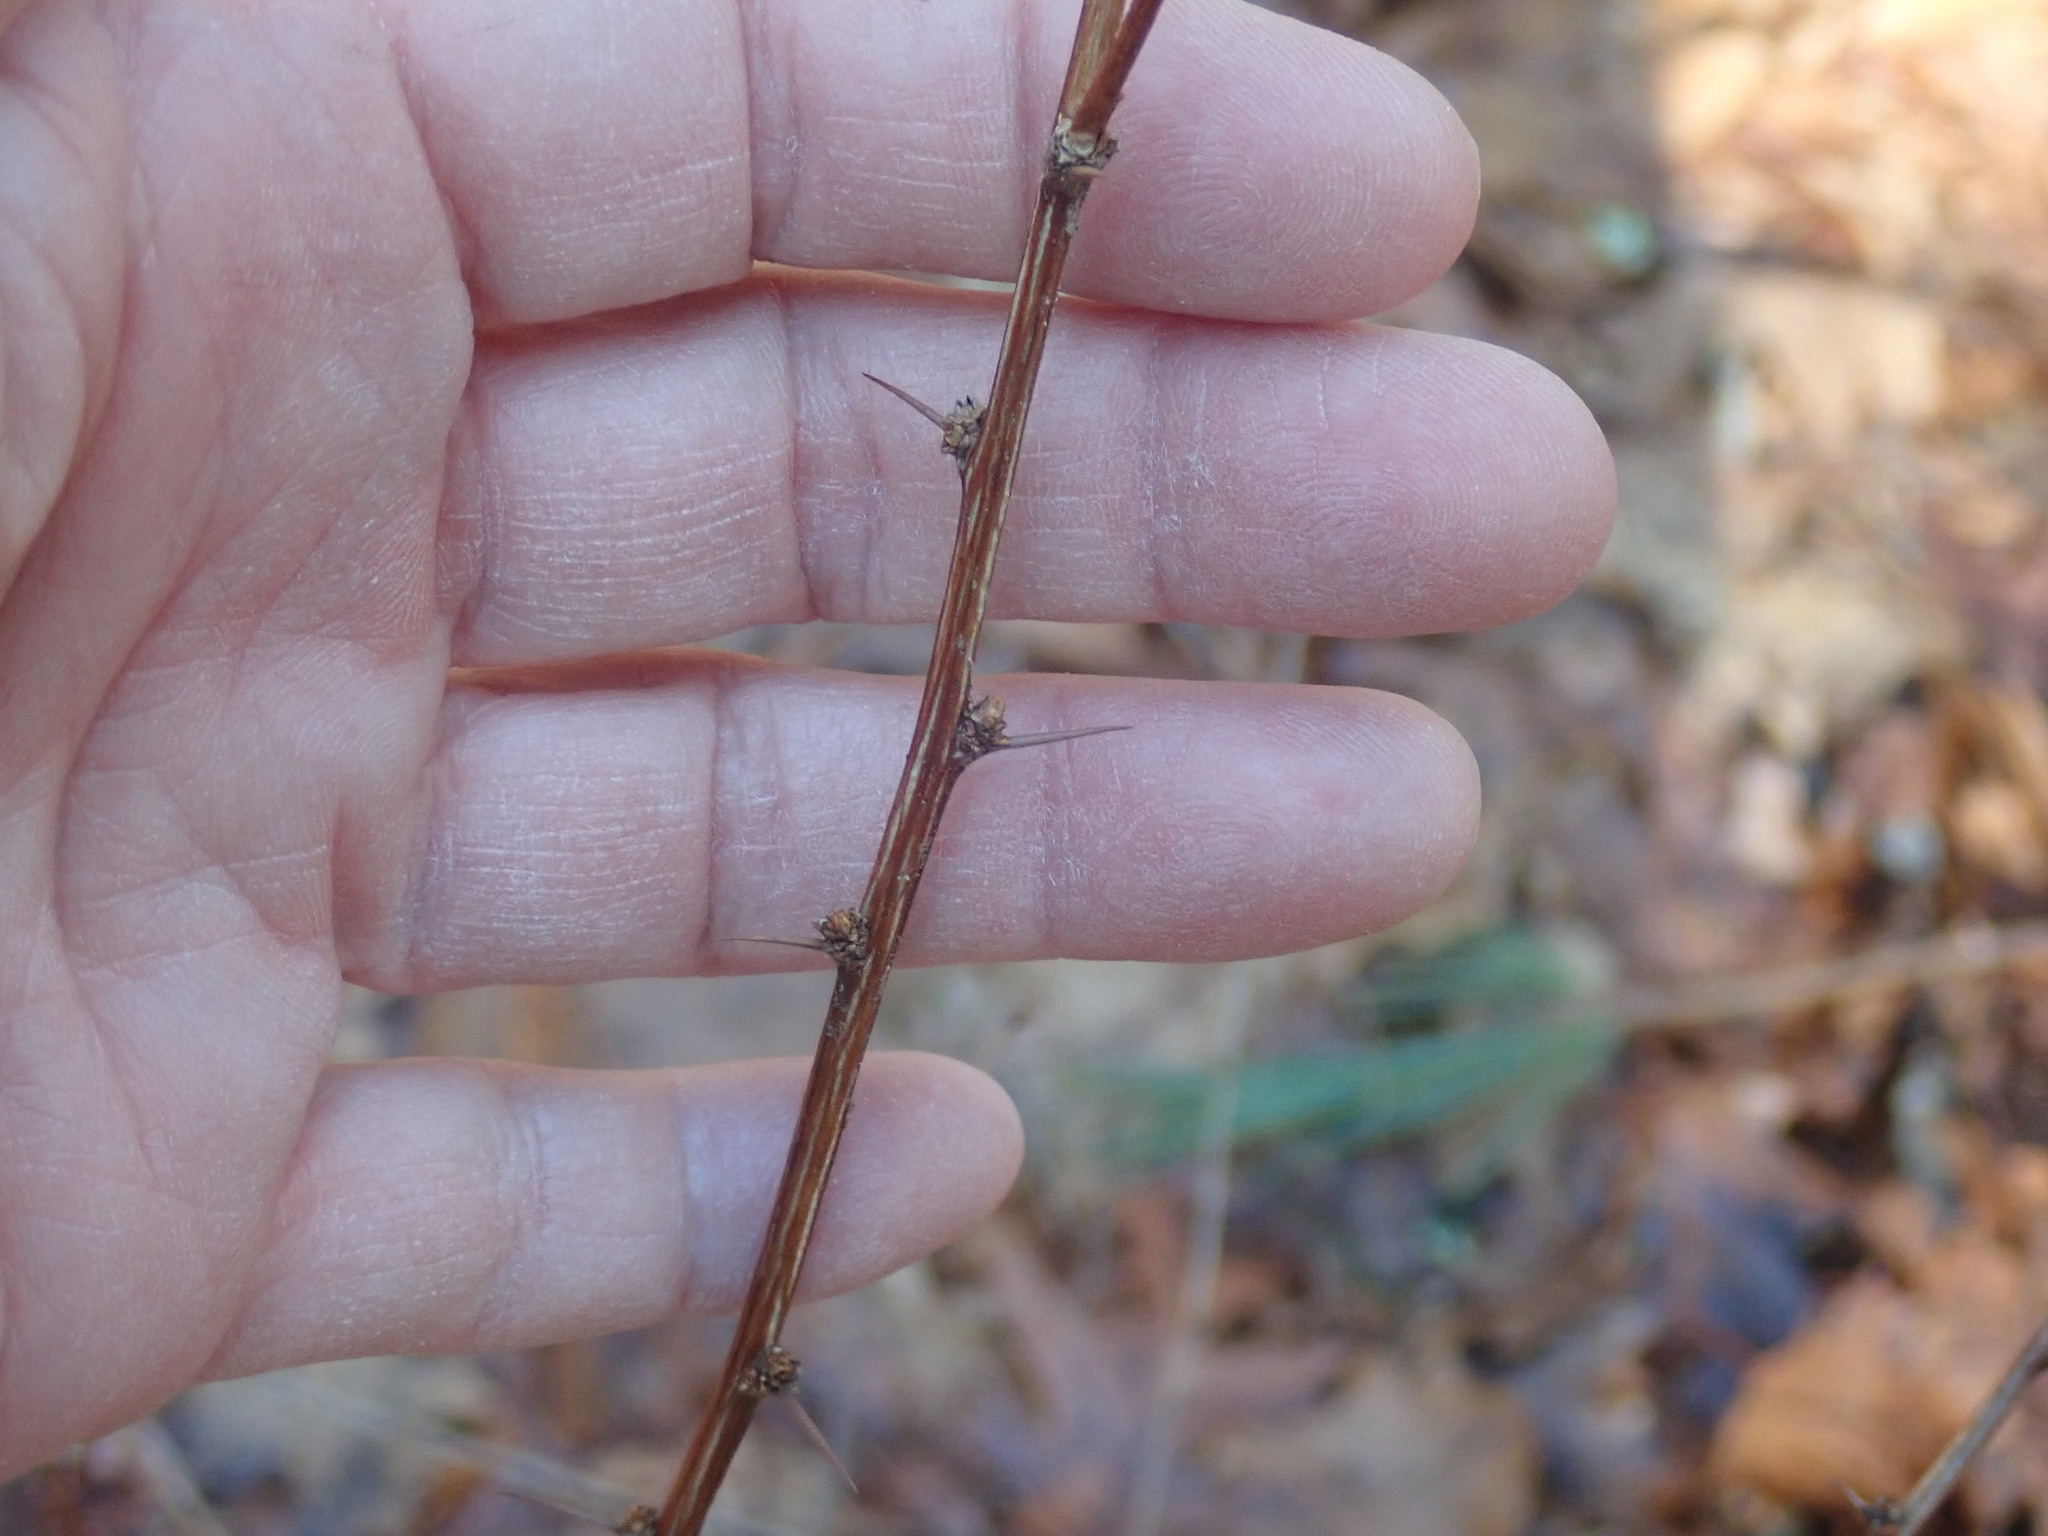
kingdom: Plantae
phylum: Tracheophyta
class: Magnoliopsida
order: Ranunculales
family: Berberidaceae
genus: Berberis
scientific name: Berberis thunbergii
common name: Japanese barberry
